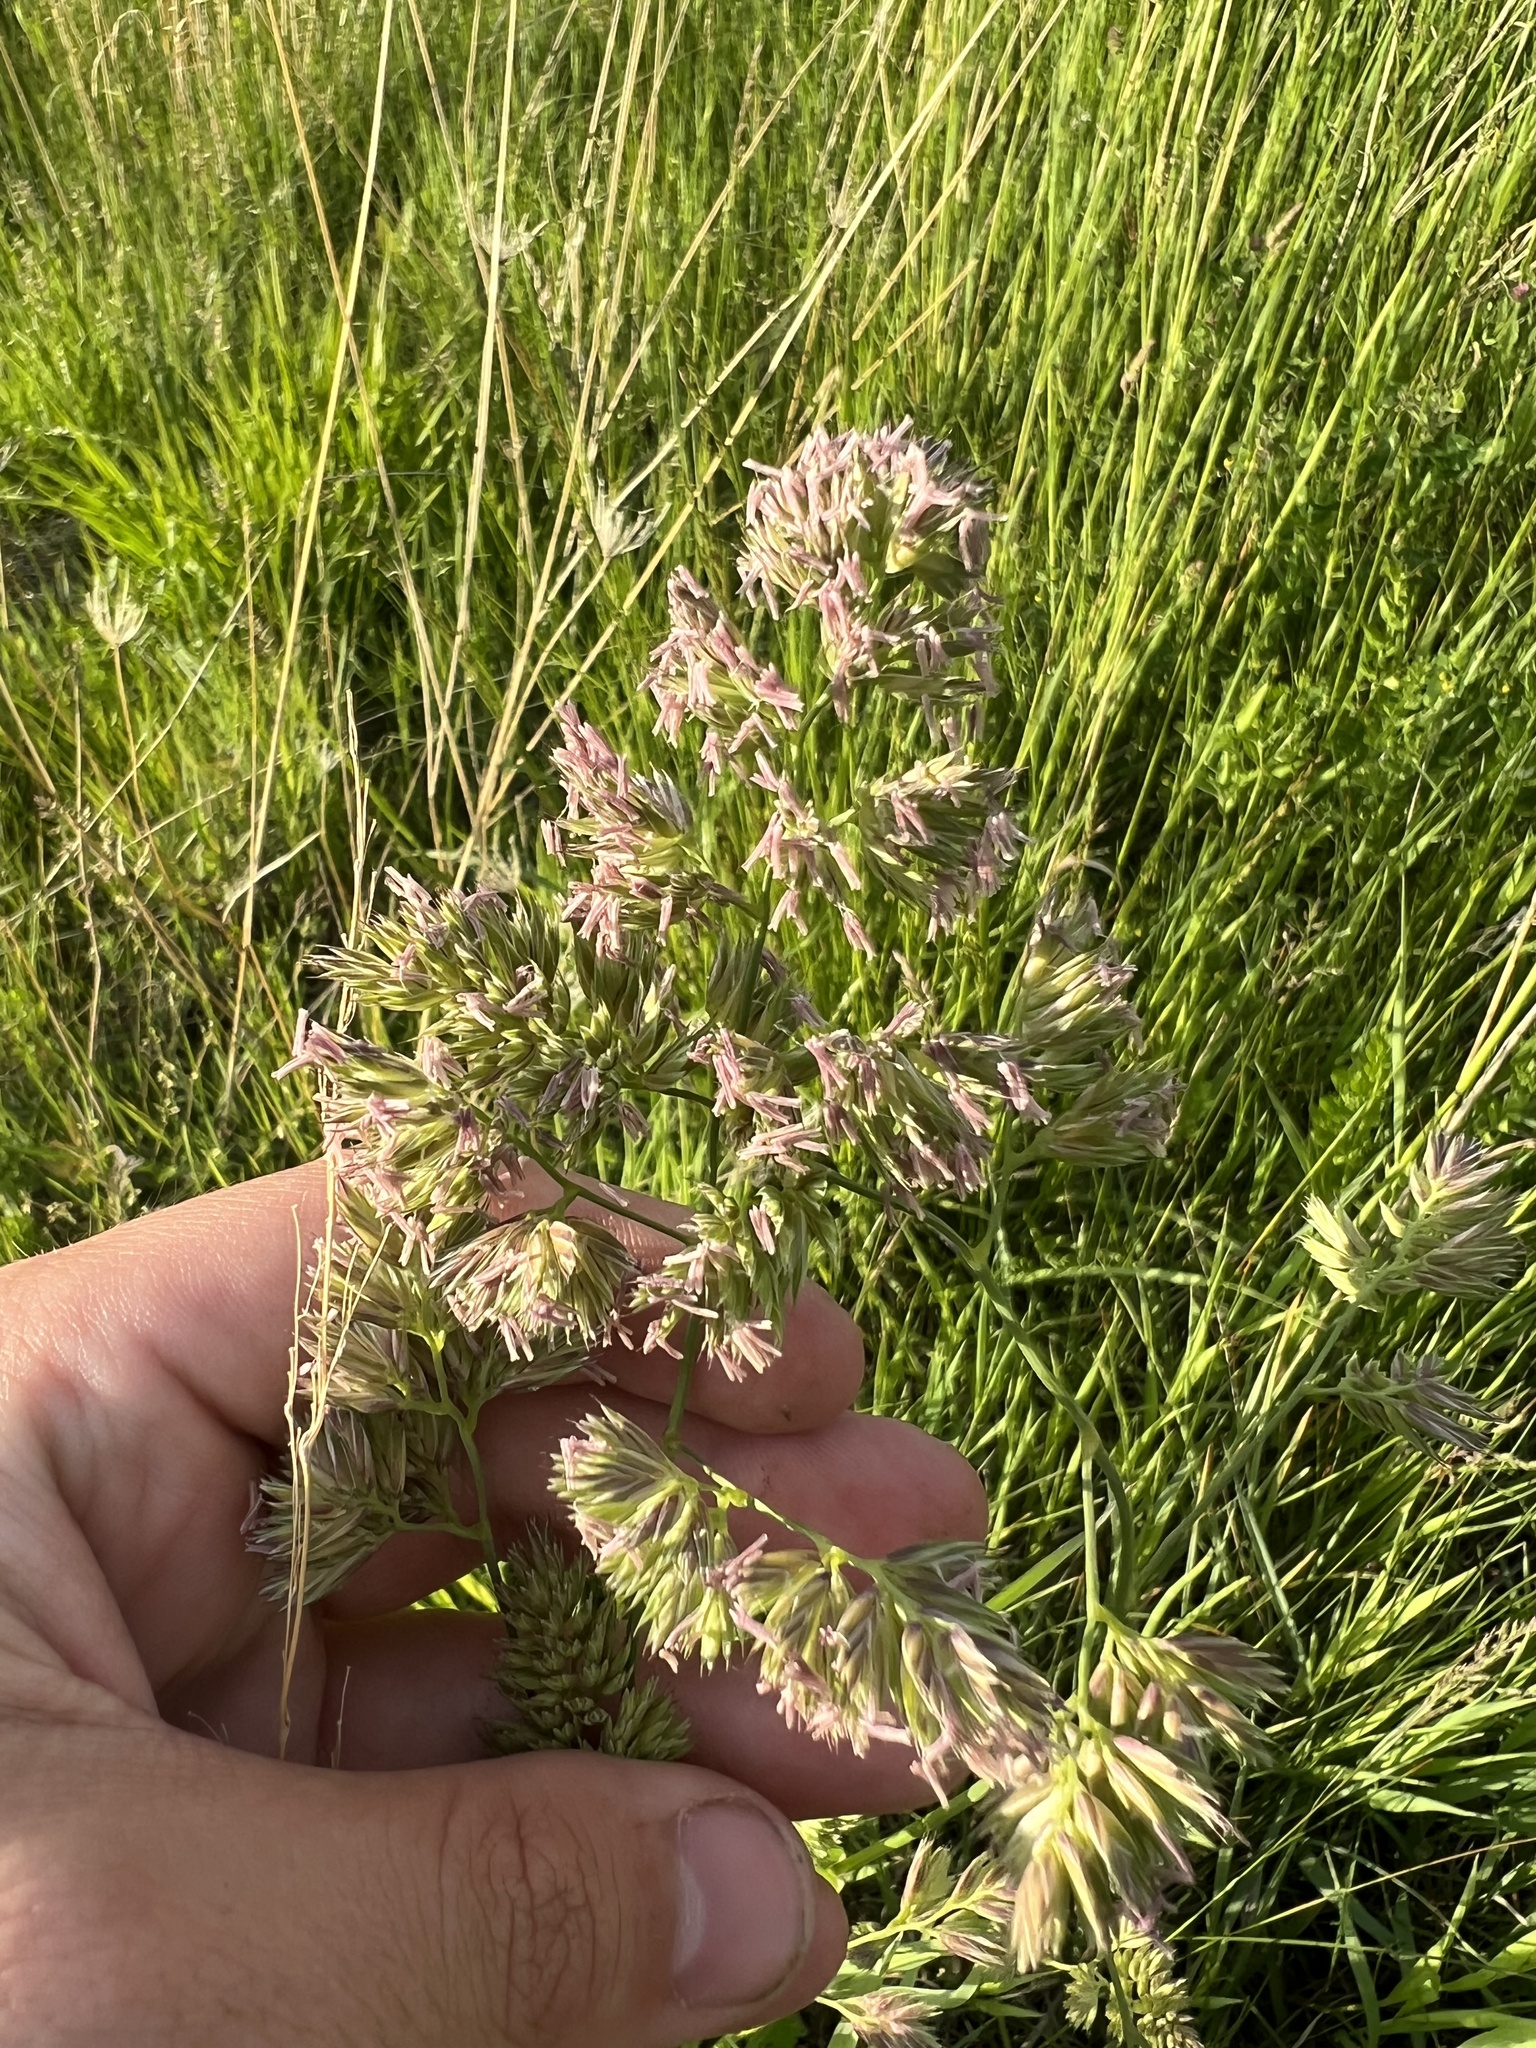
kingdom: Plantae
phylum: Tracheophyta
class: Liliopsida
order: Poales
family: Poaceae
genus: Dactylis
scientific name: Dactylis glomerata
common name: Orchardgrass
